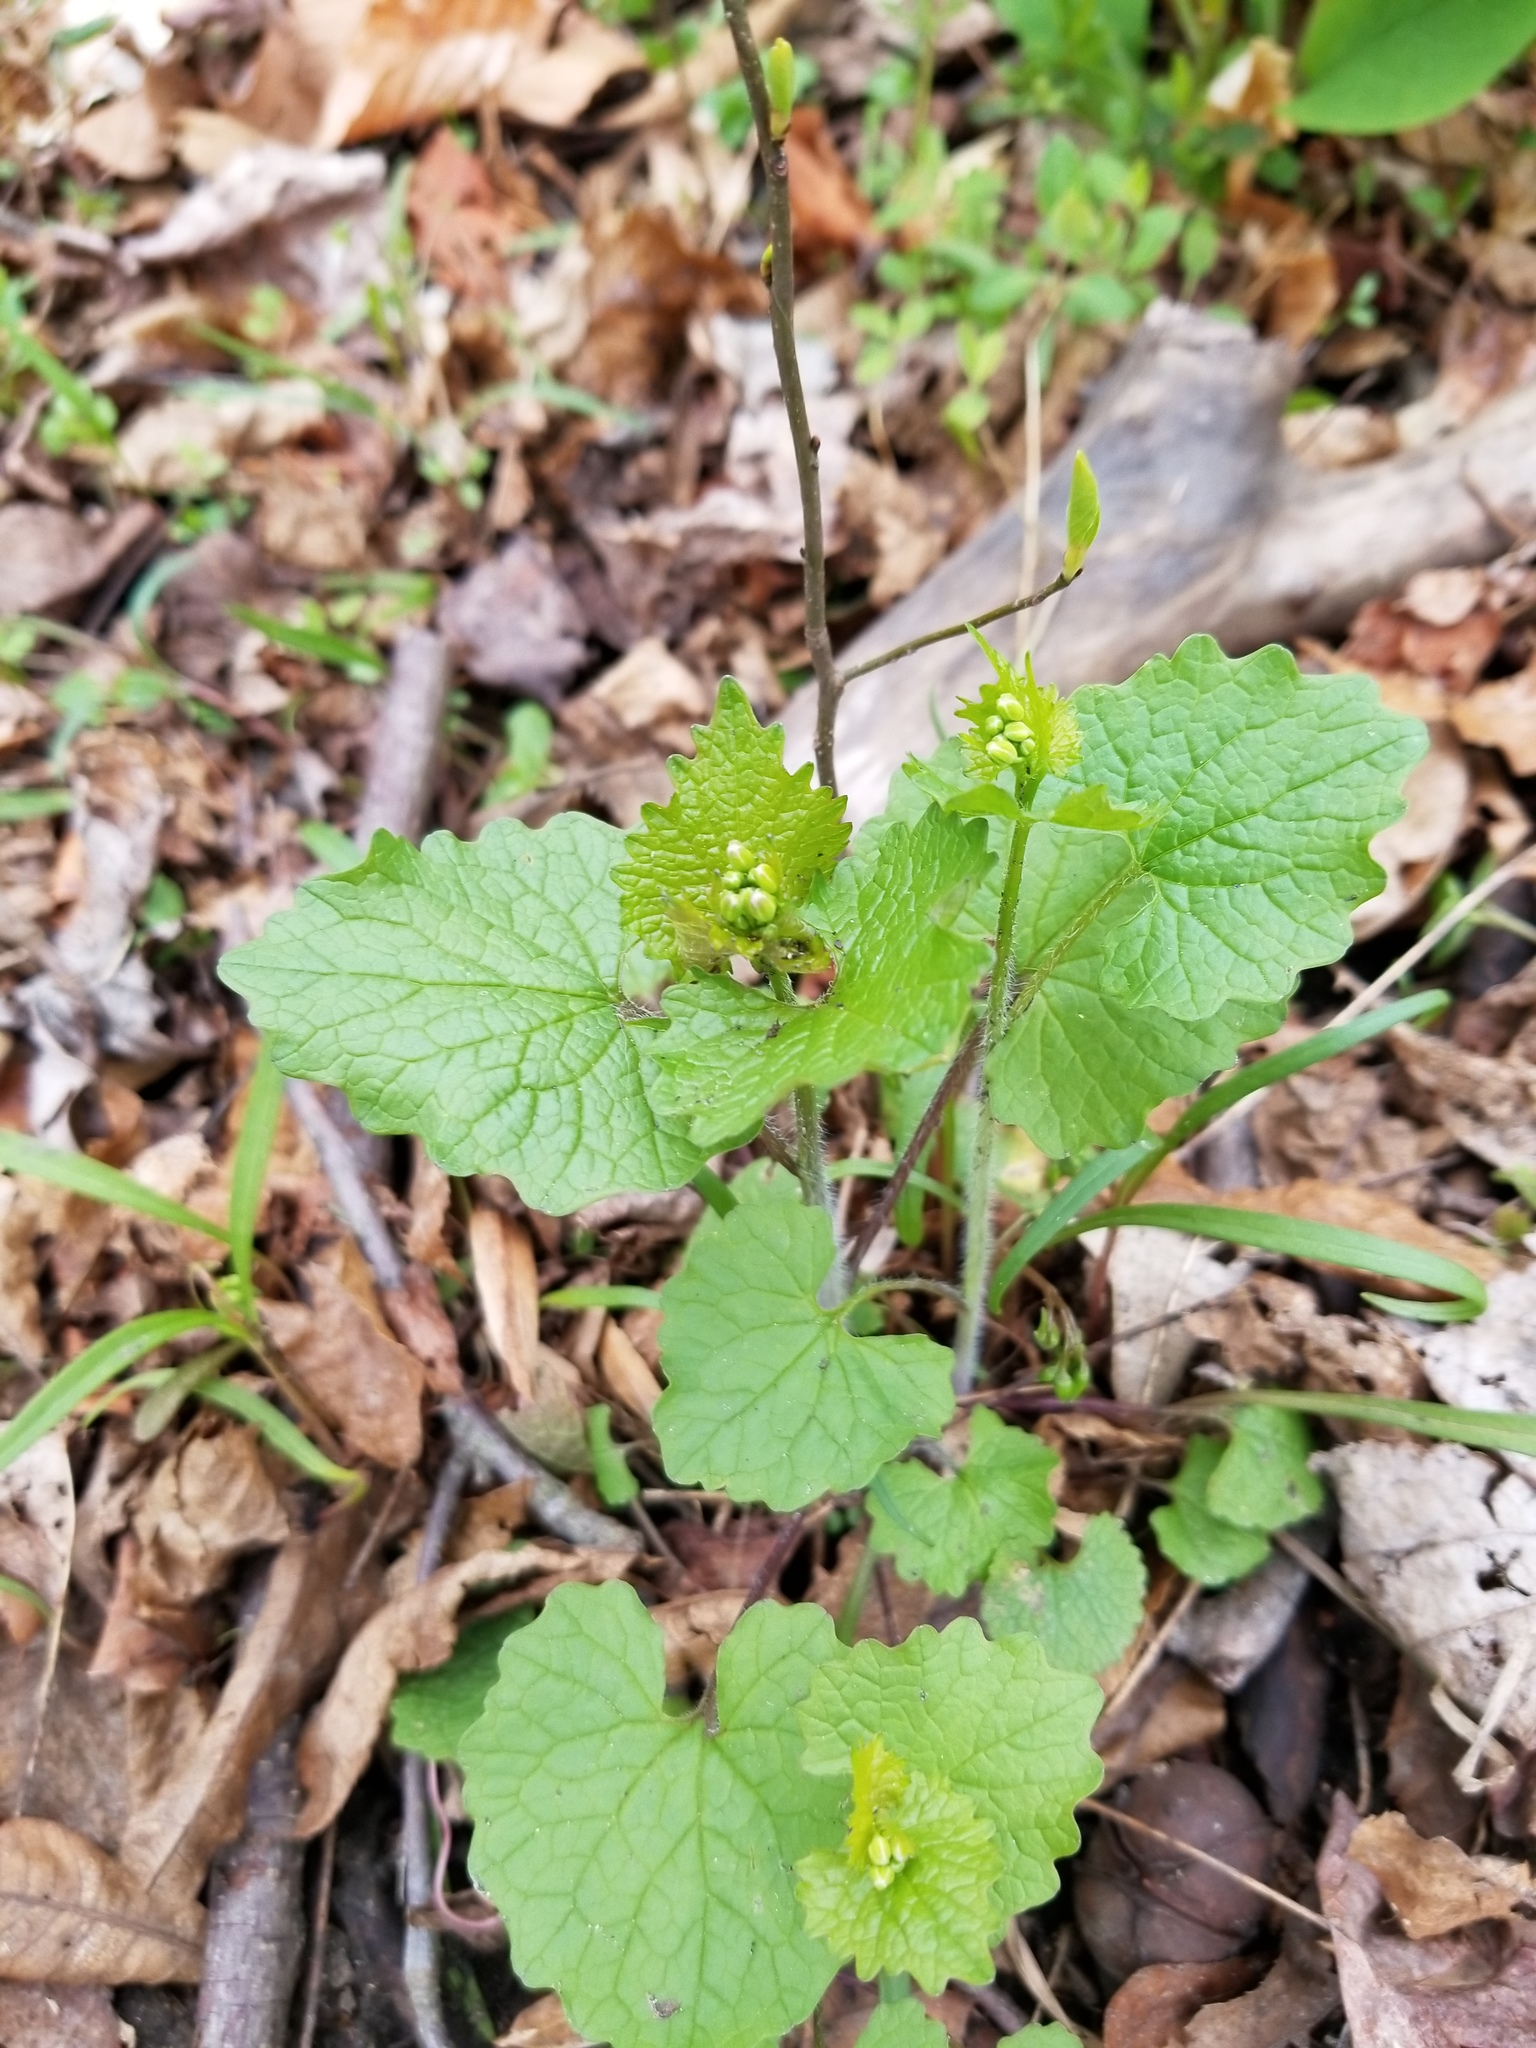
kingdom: Plantae
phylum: Tracheophyta
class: Magnoliopsida
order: Brassicales
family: Brassicaceae
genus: Alliaria
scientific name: Alliaria petiolata
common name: Garlic mustard
